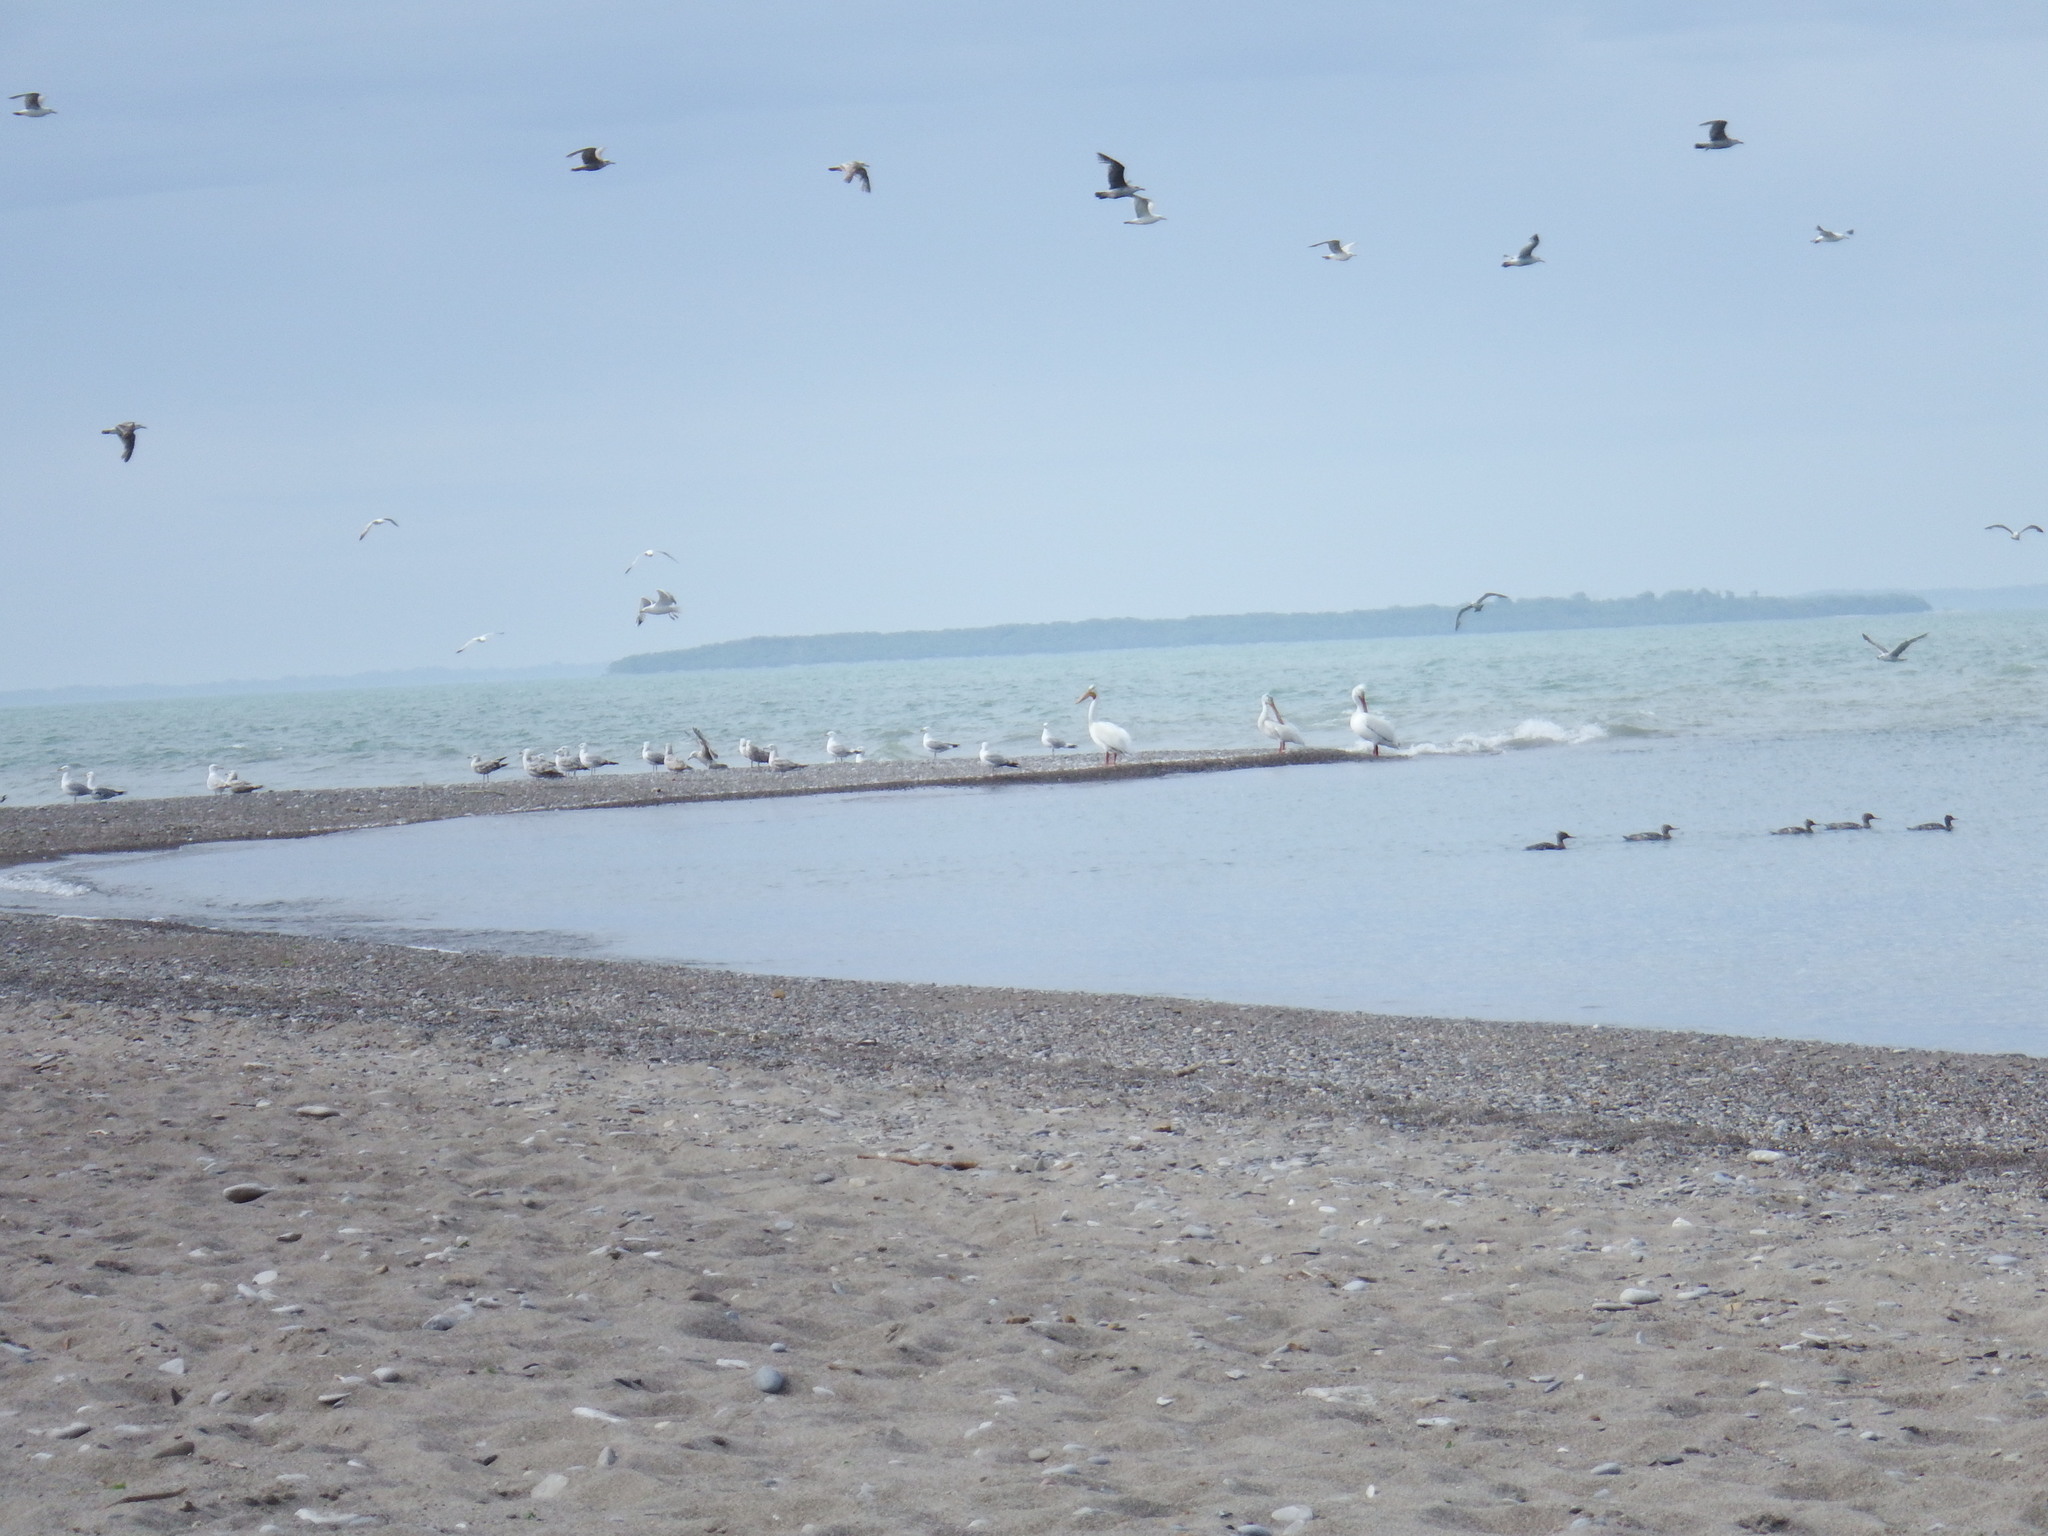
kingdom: Animalia
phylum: Chordata
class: Aves
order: Anseriformes
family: Anatidae
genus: Mergus
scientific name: Mergus serrator
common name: Red-breasted merganser
